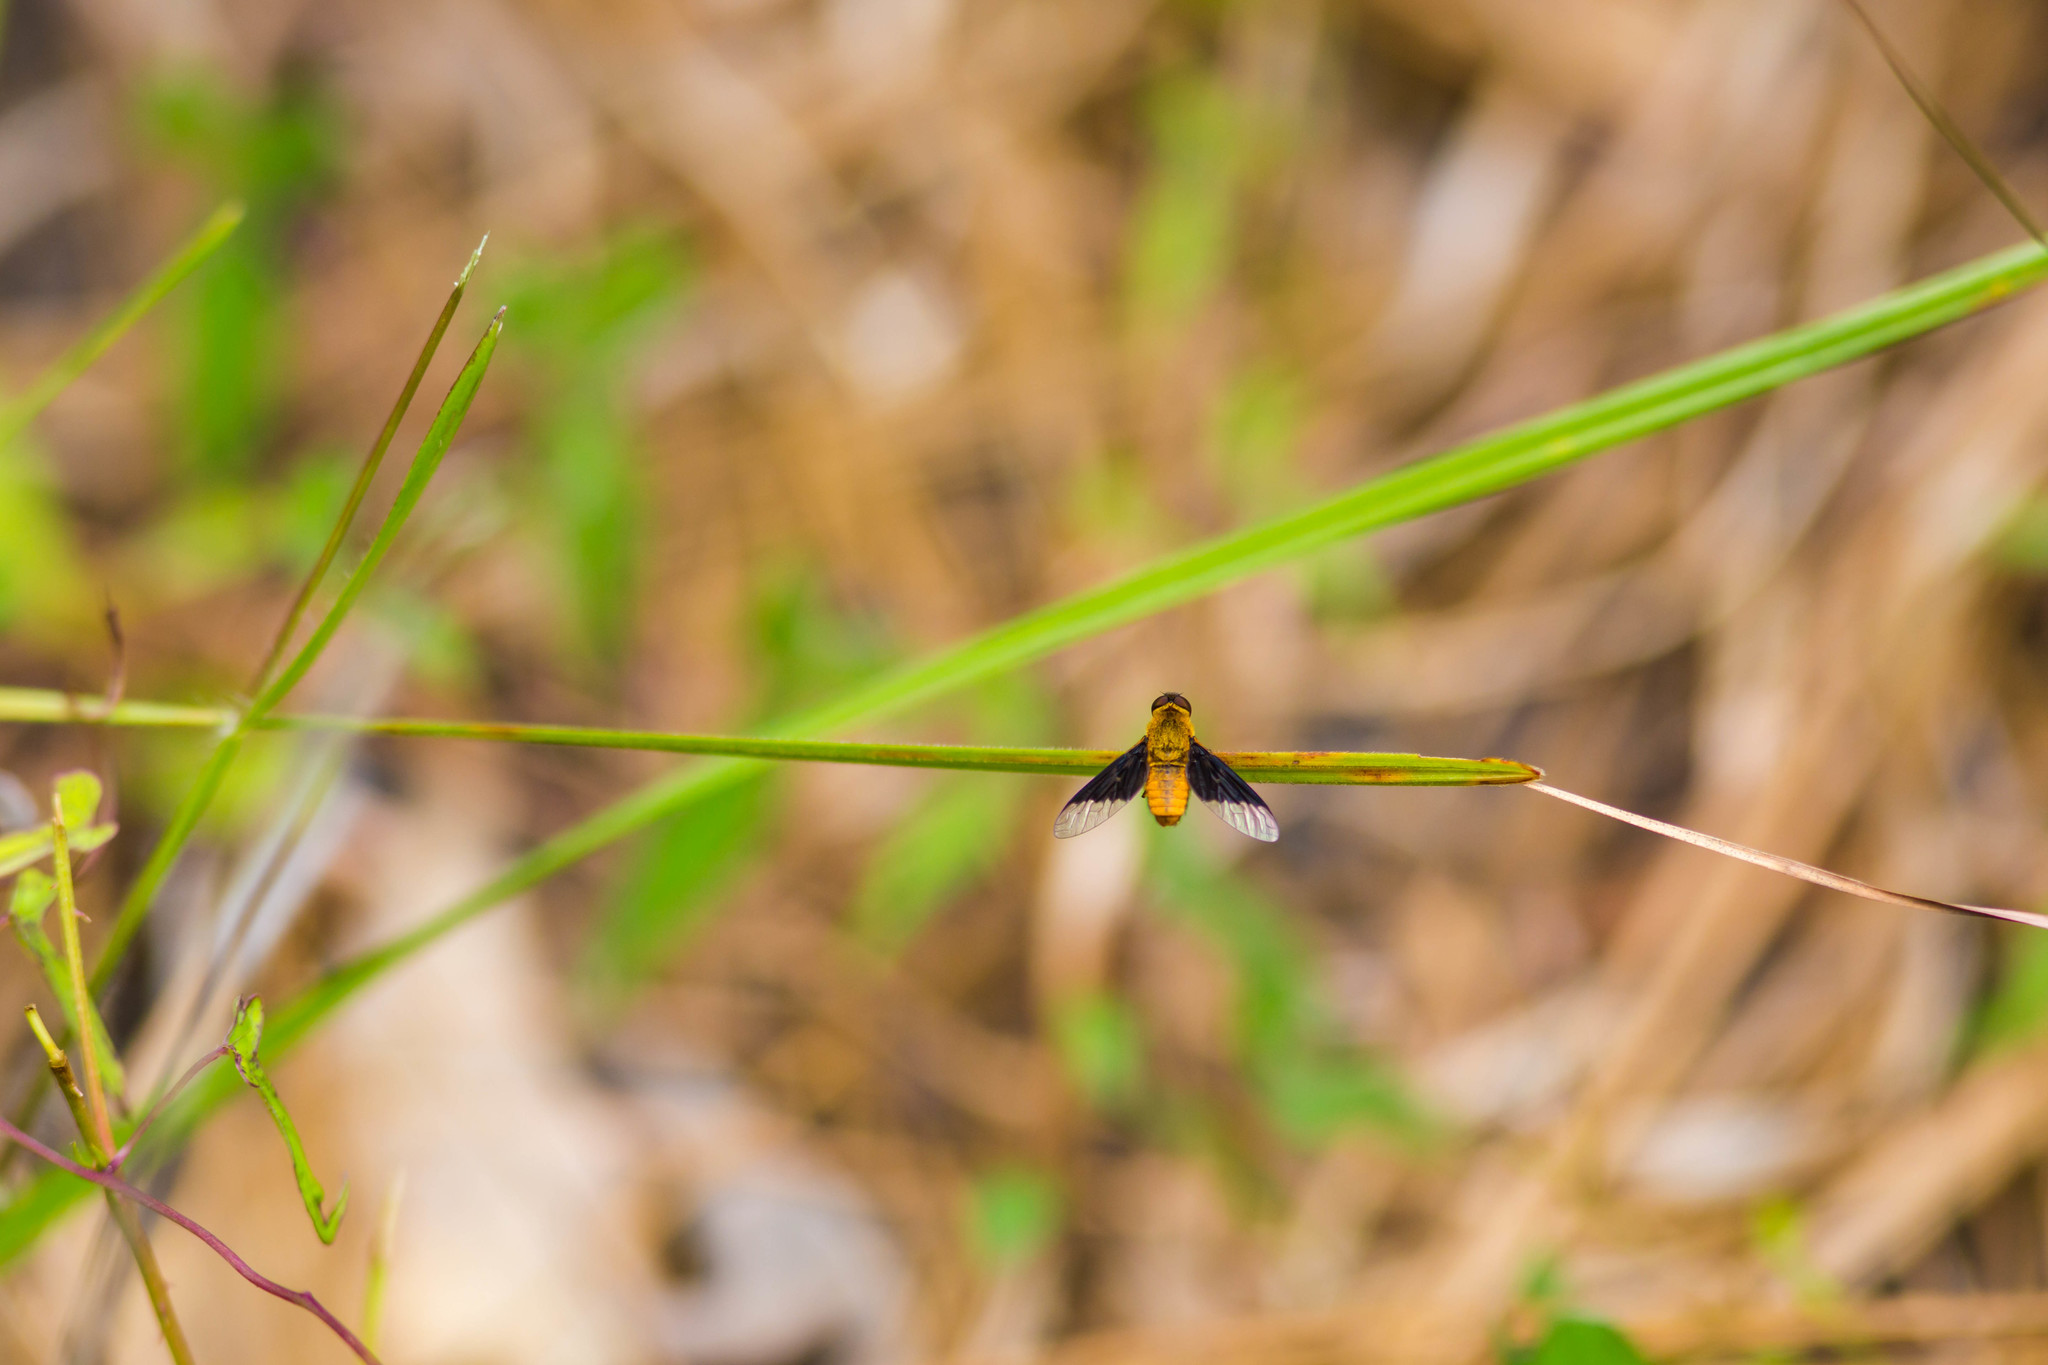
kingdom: Animalia
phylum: Arthropoda
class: Insecta
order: Diptera
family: Bombyliidae
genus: Chrysanthrax
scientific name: Chrysanthrax cypris
